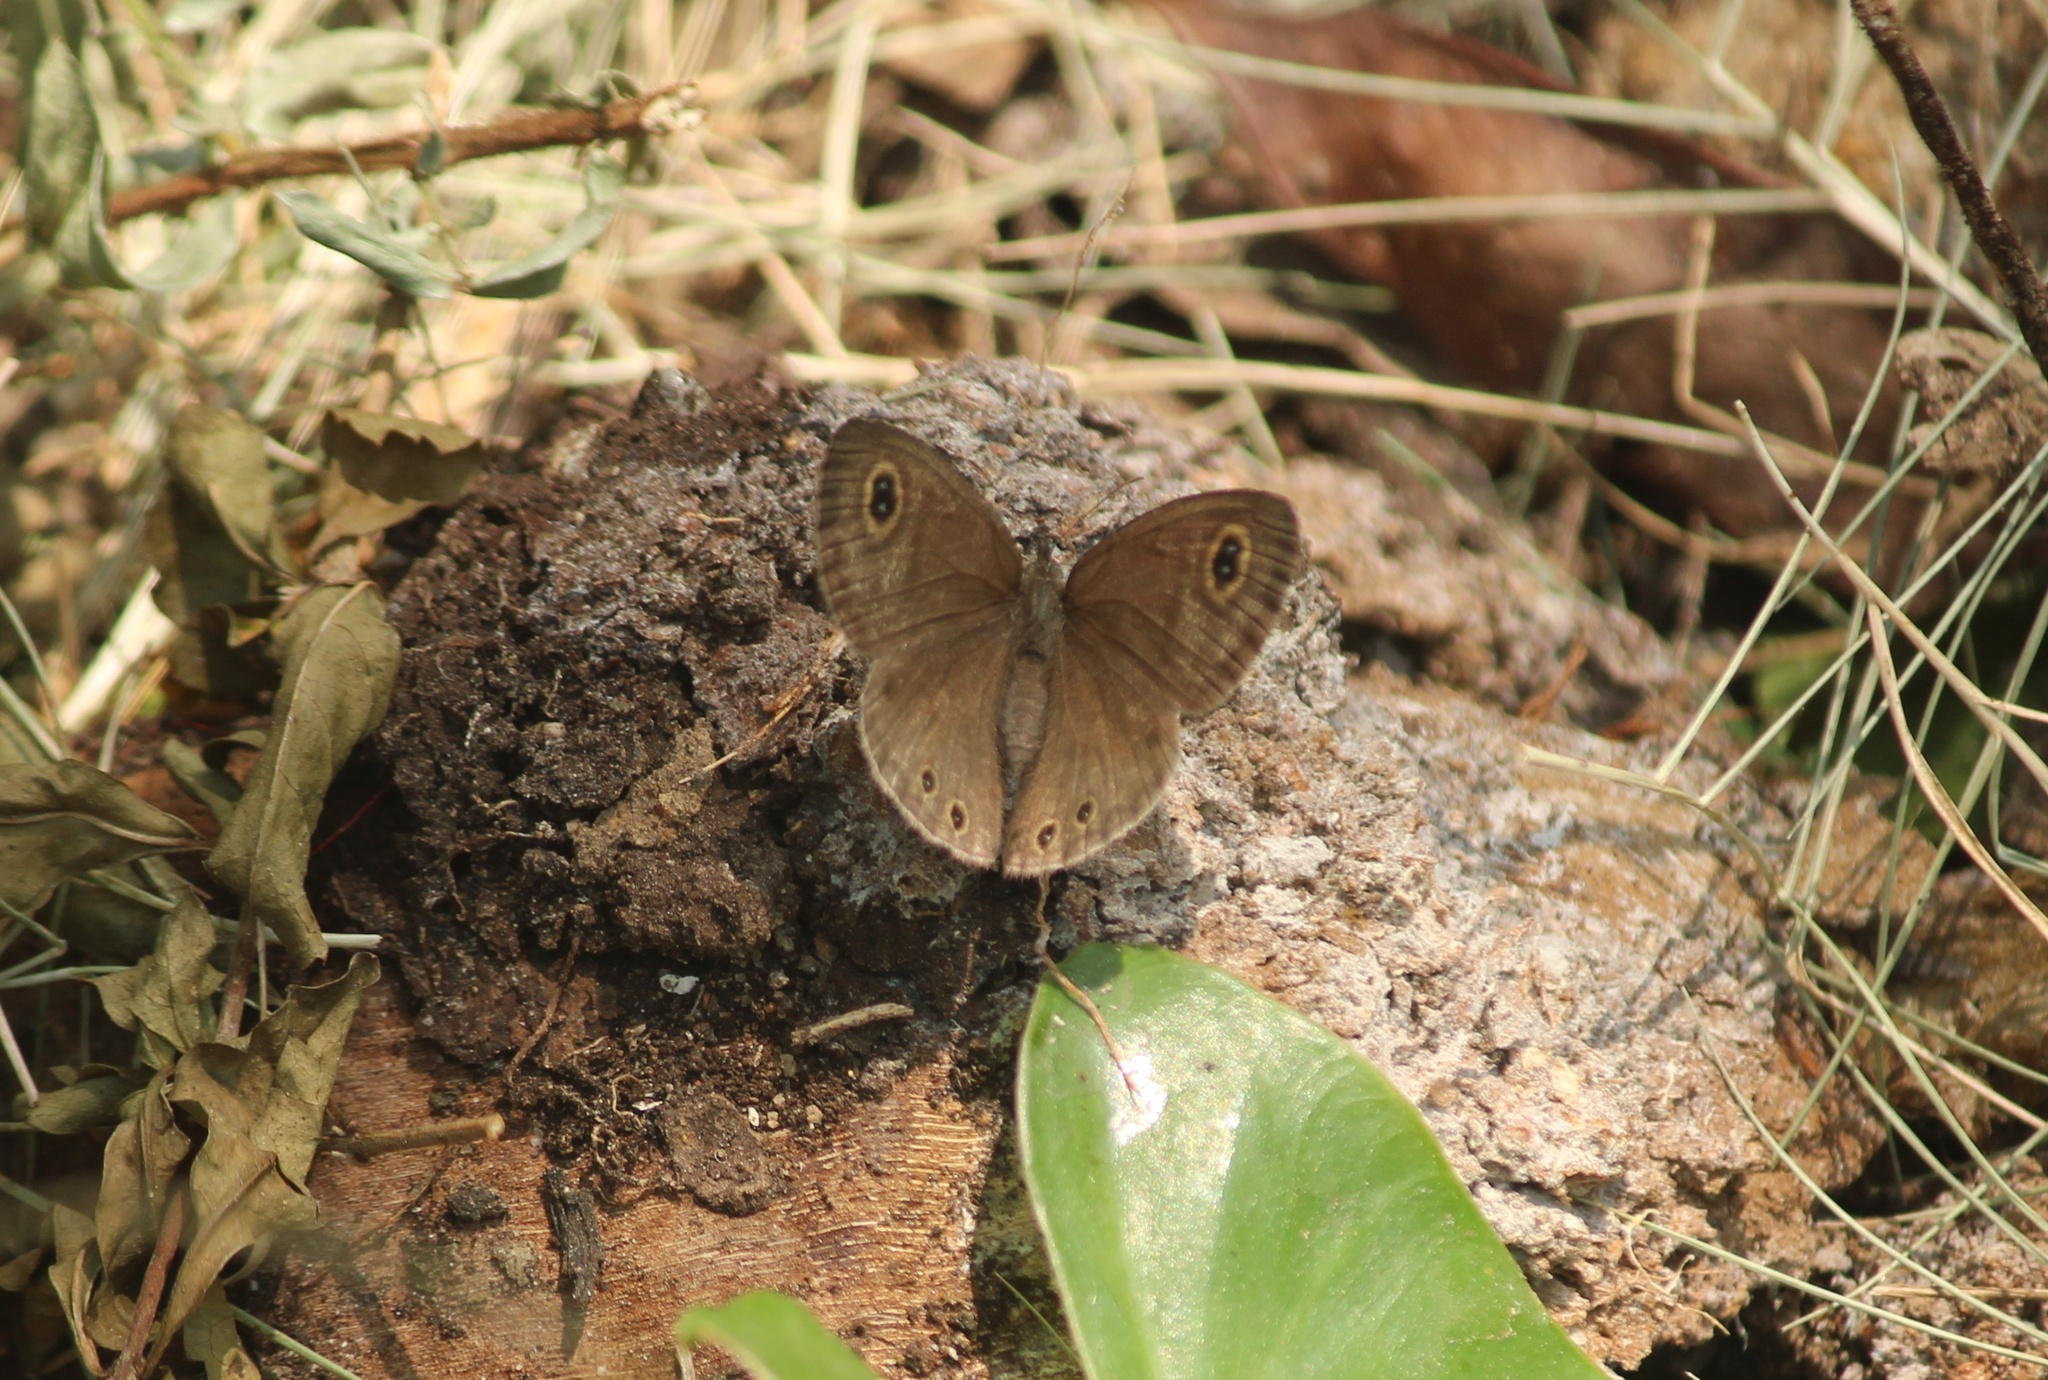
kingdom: Animalia
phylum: Arthropoda
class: Insecta
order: Lepidoptera
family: Nymphalidae
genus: Ypthima
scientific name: Ypthima huebneri
